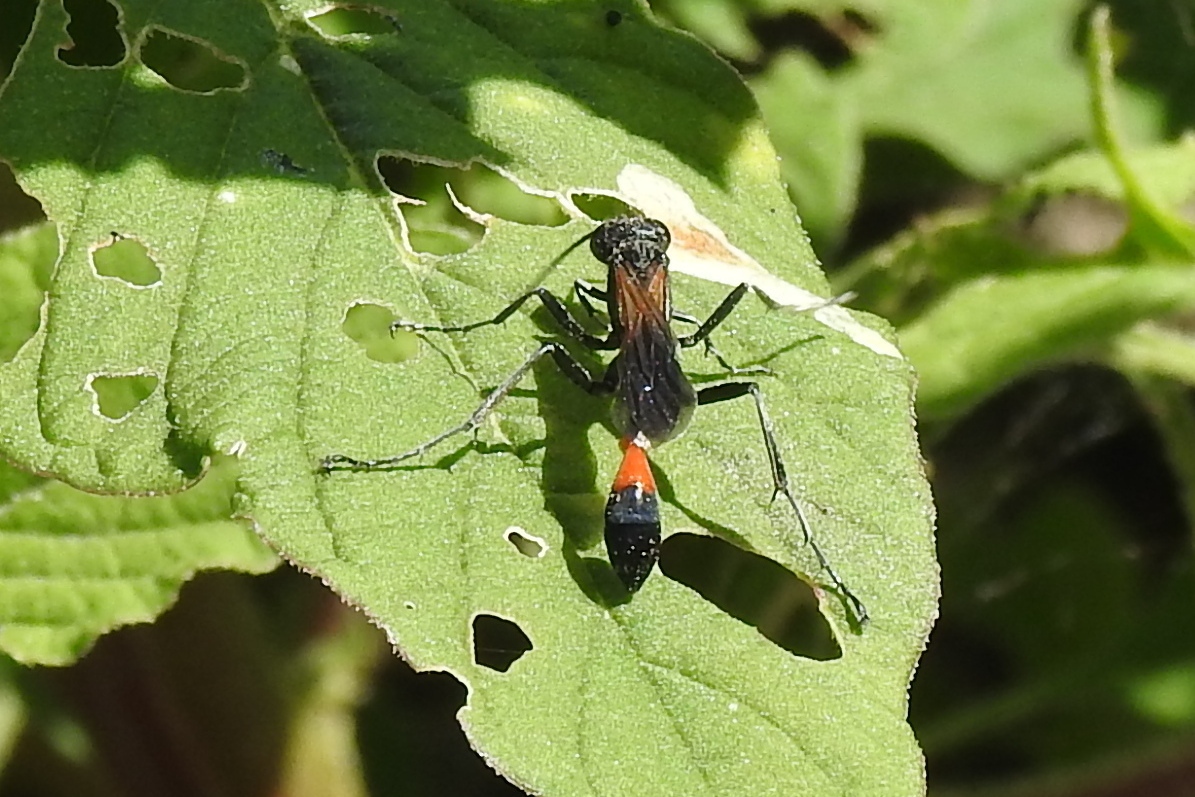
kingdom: Animalia
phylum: Arthropoda
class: Insecta
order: Hymenoptera
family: Sphecidae
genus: Ammophila
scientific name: Ammophila pictipennis
